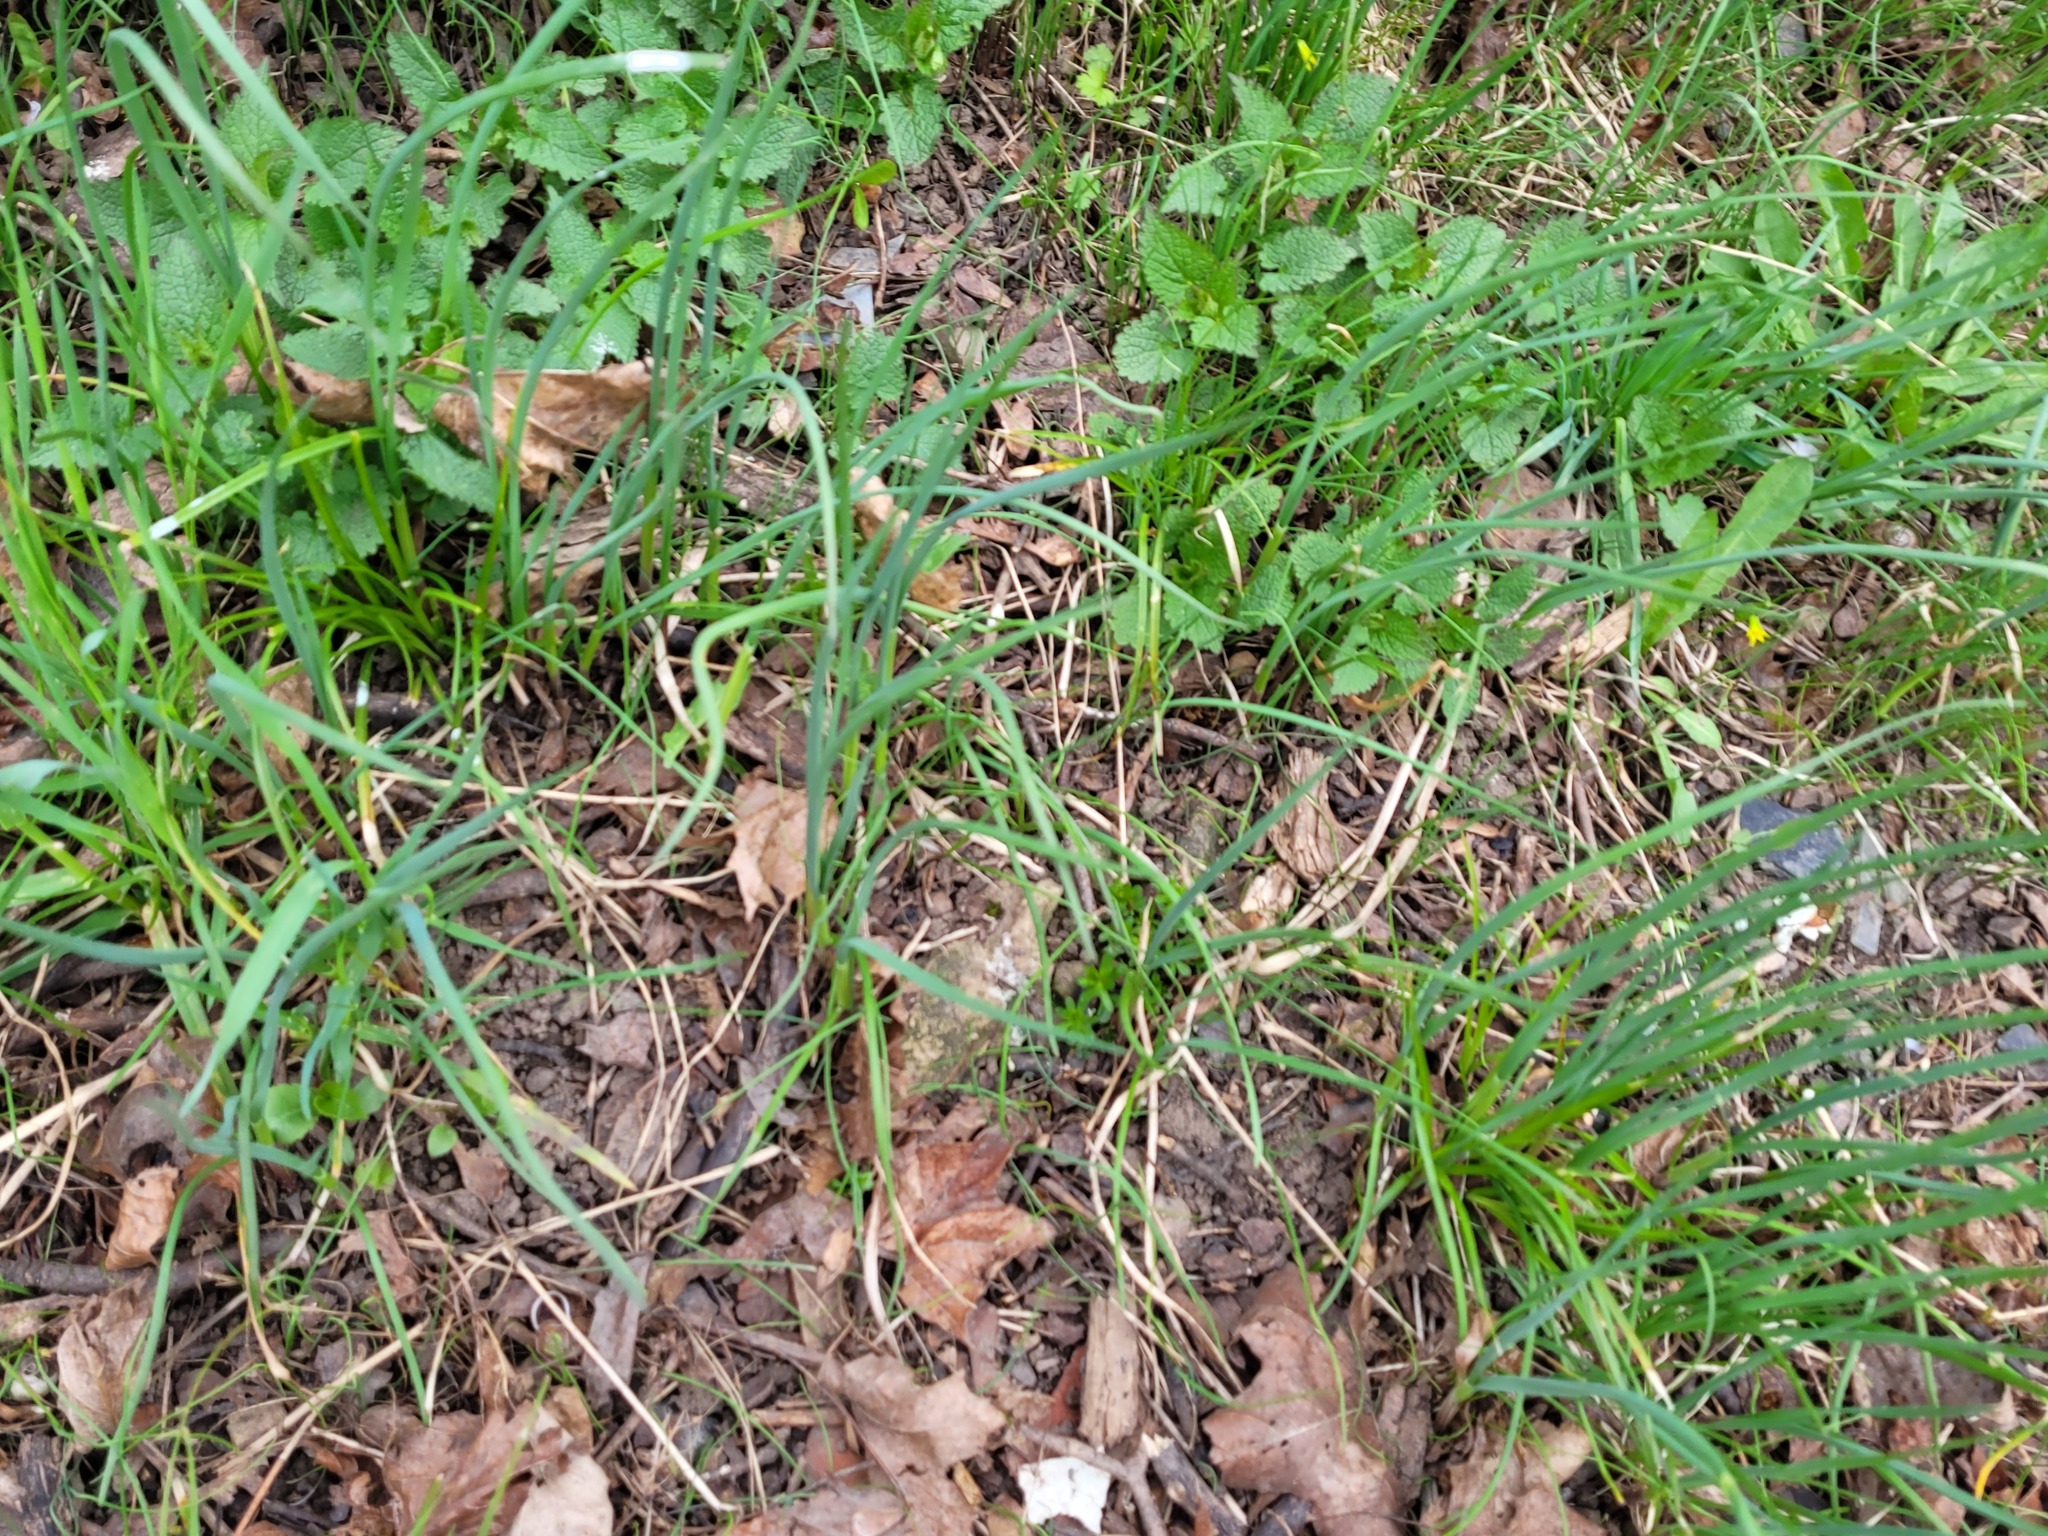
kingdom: Plantae
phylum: Tracheophyta
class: Liliopsida
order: Asparagales
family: Amaryllidaceae
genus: Allium
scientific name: Allium oleraceum
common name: Field garlic
